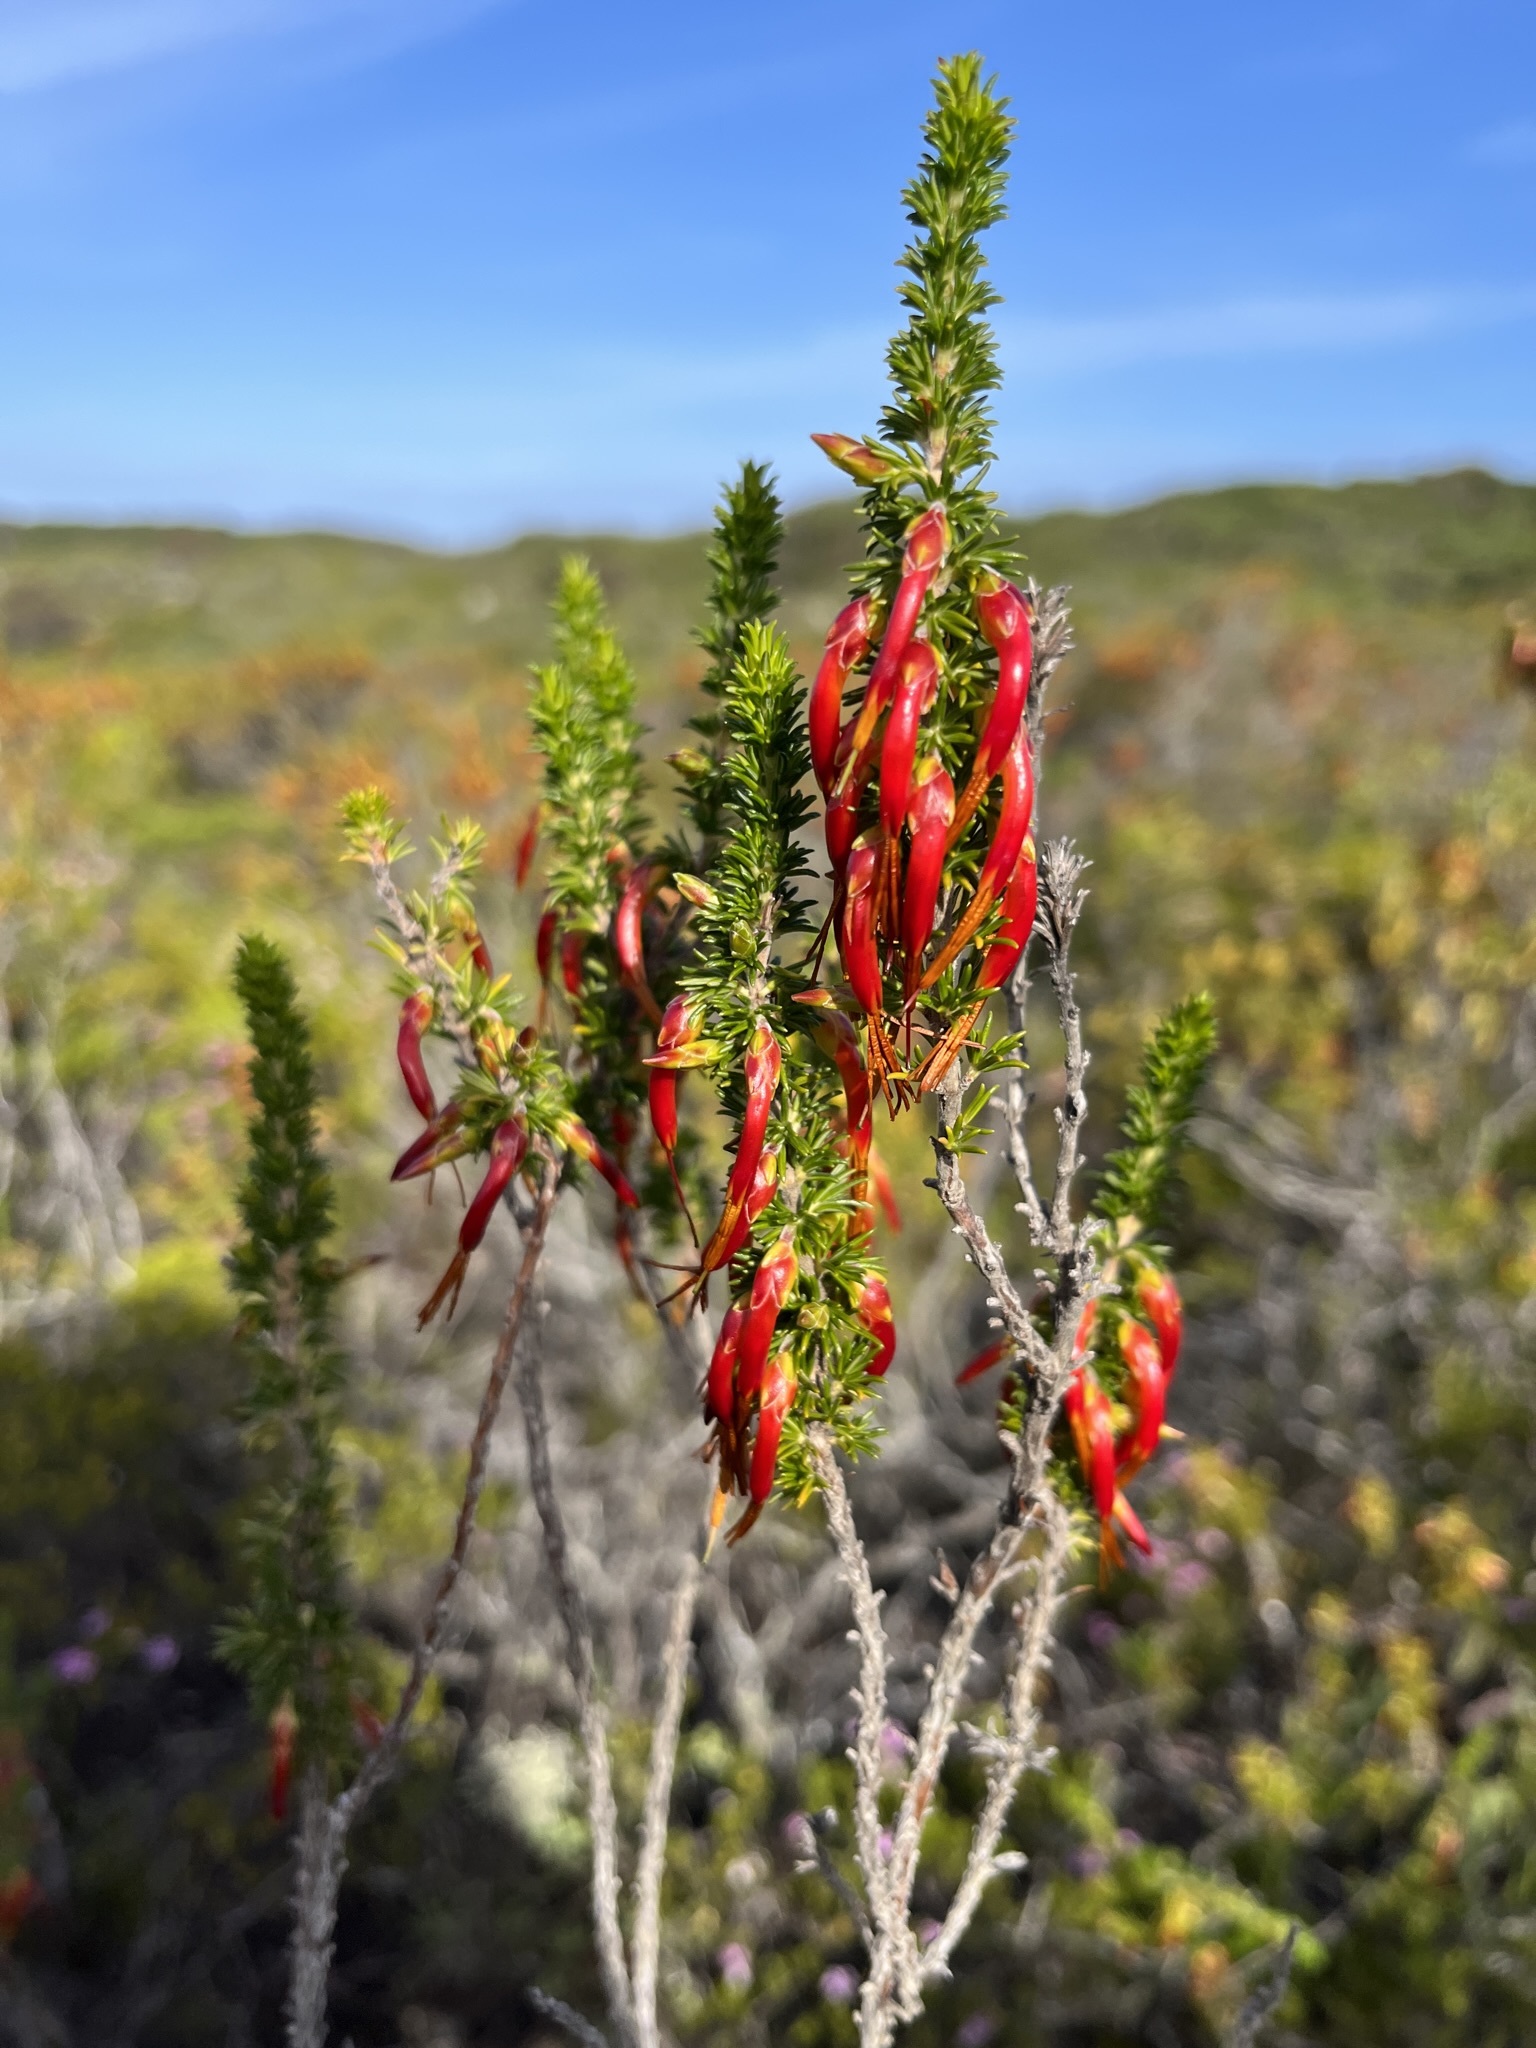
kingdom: Plantae
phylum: Tracheophyta
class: Magnoliopsida
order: Ericales
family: Ericaceae
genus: Erica
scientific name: Erica coccinea
